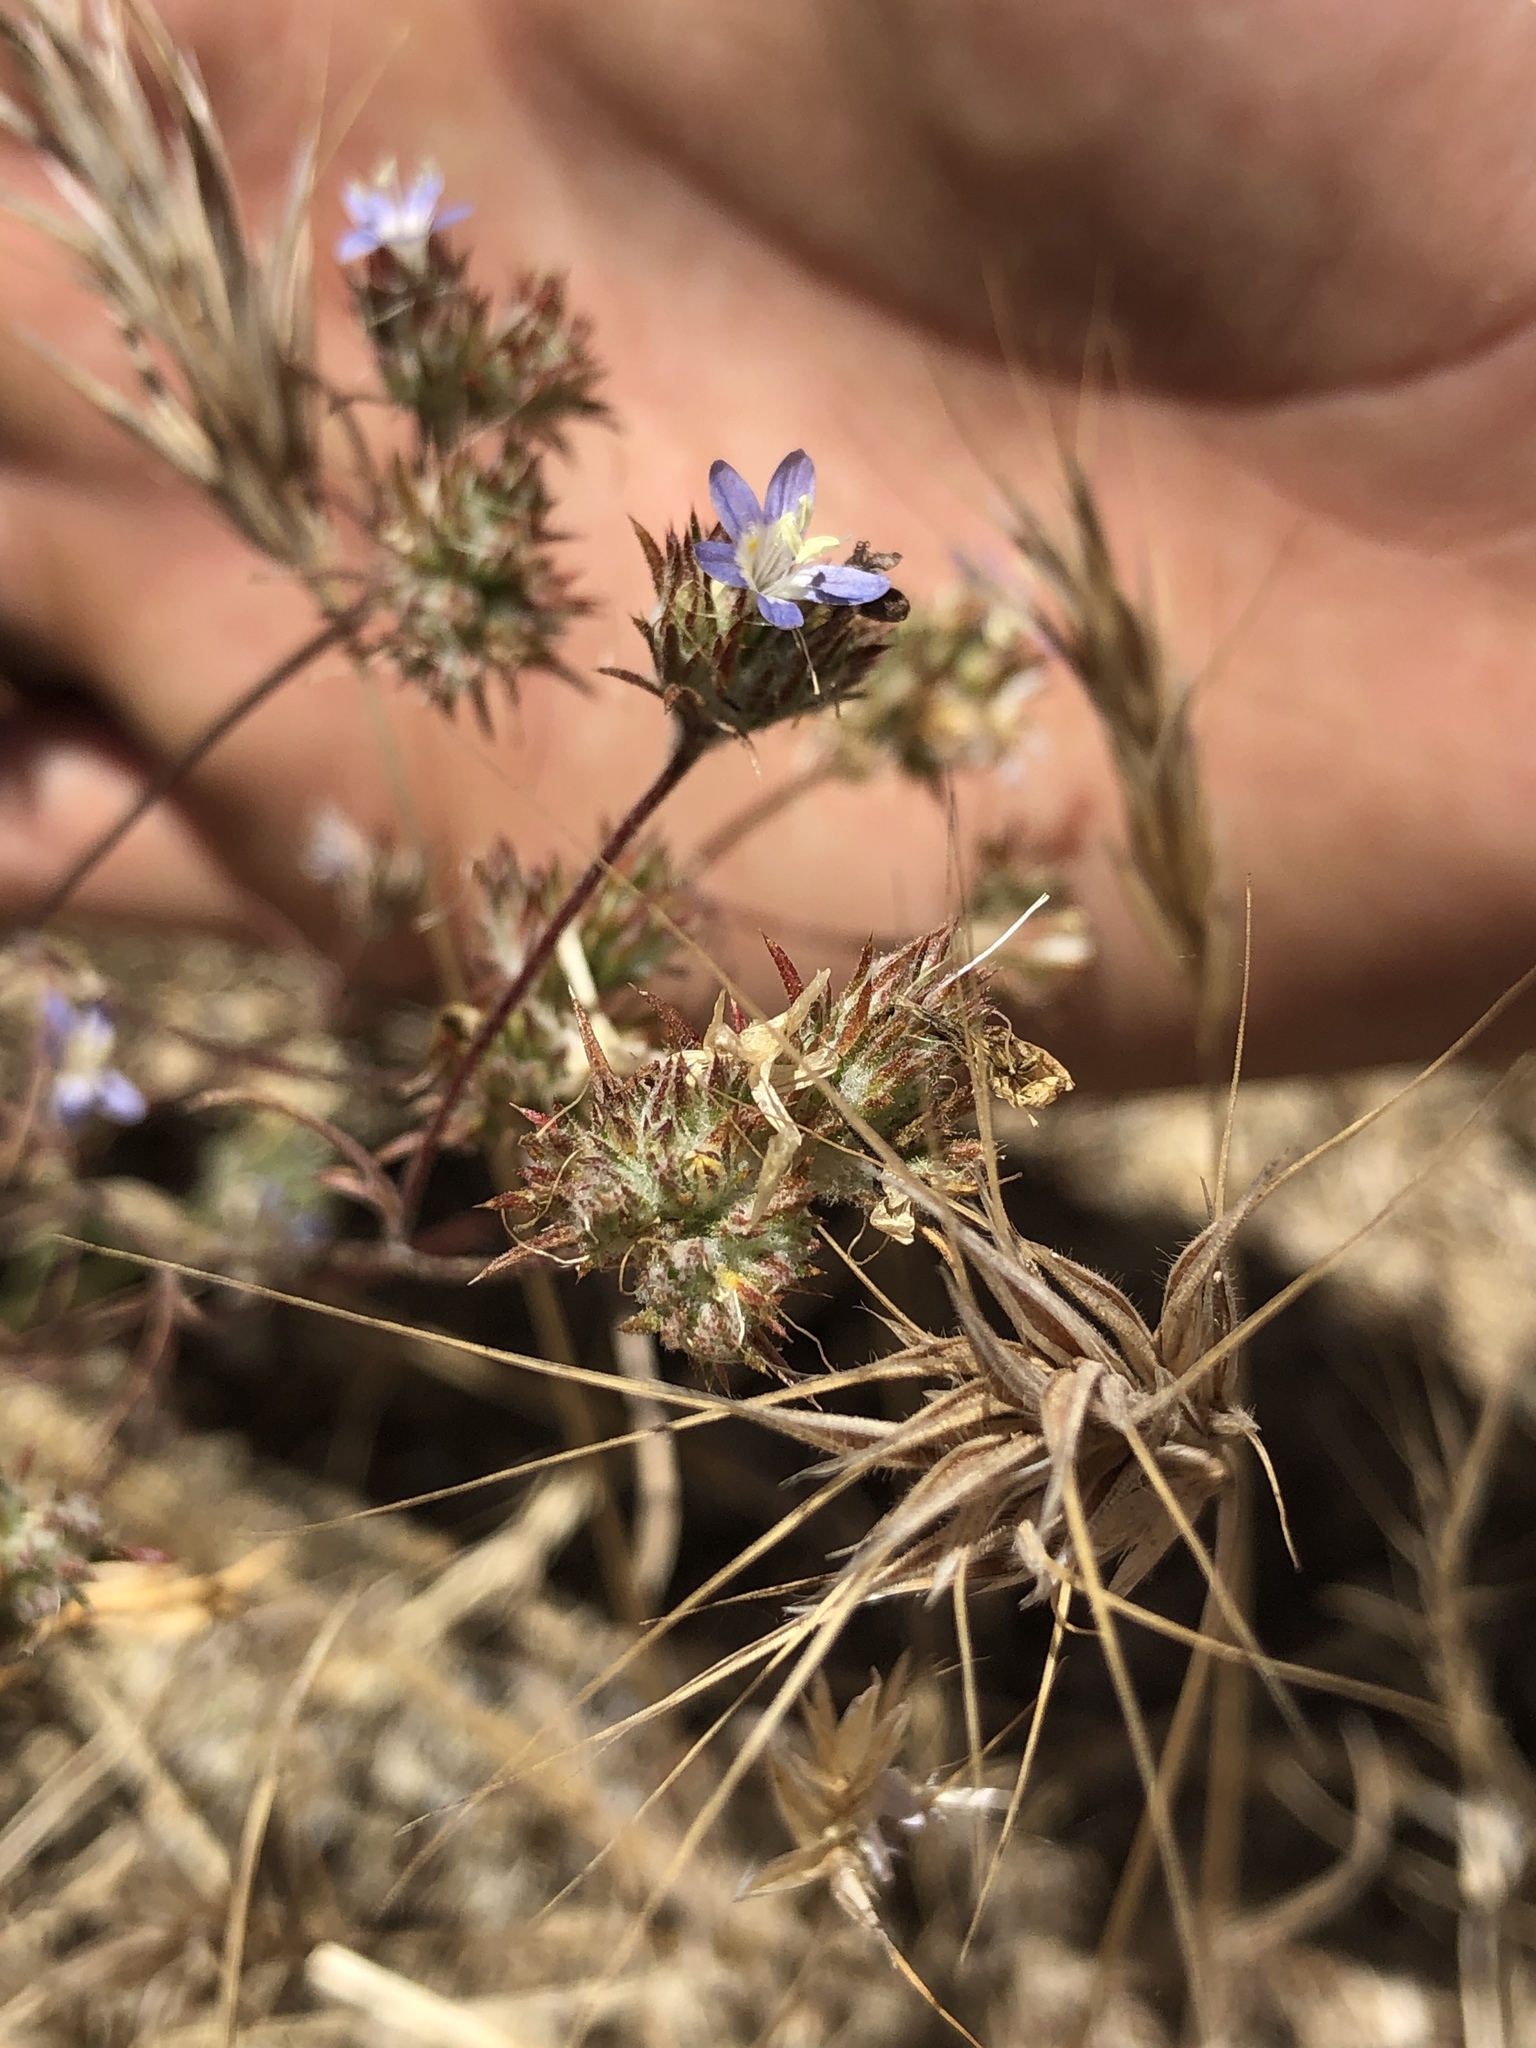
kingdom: Plantae
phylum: Tracheophyta
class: Magnoliopsida
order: Ericales
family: Polemoniaceae
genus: Eriastrum
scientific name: Eriastrum sapphirinum
